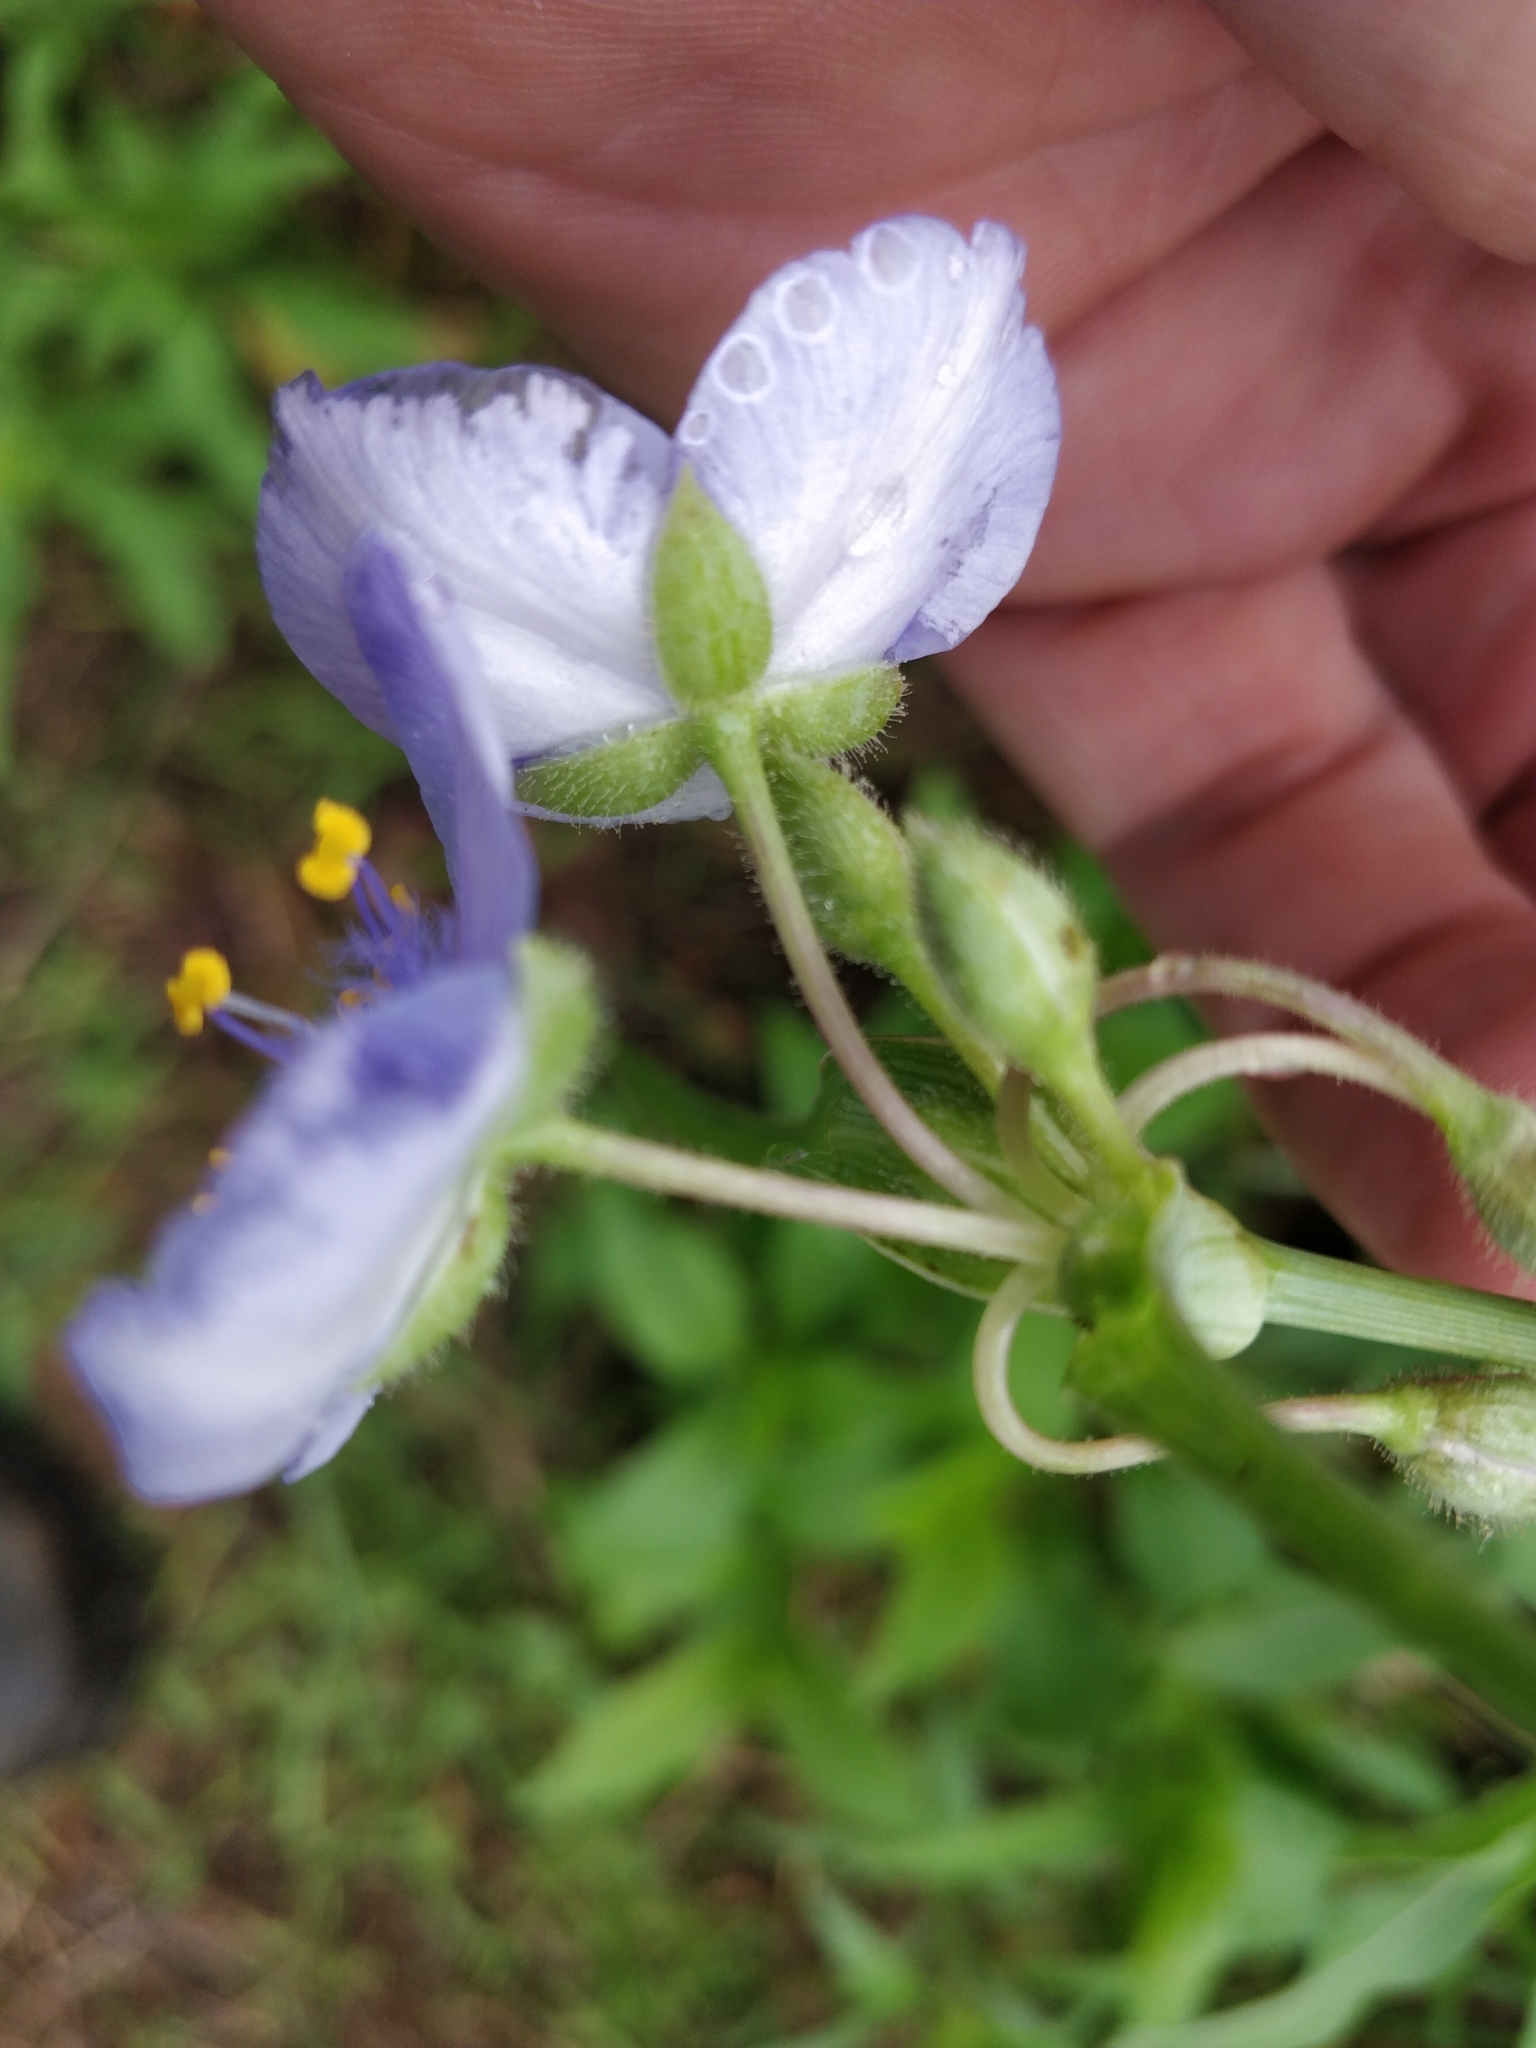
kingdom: Plantae
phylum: Tracheophyta
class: Liliopsida
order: Commelinales
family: Commelinaceae
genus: Tradescantia
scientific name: Tradescantia occidentalis
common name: Prairie spiderwort
